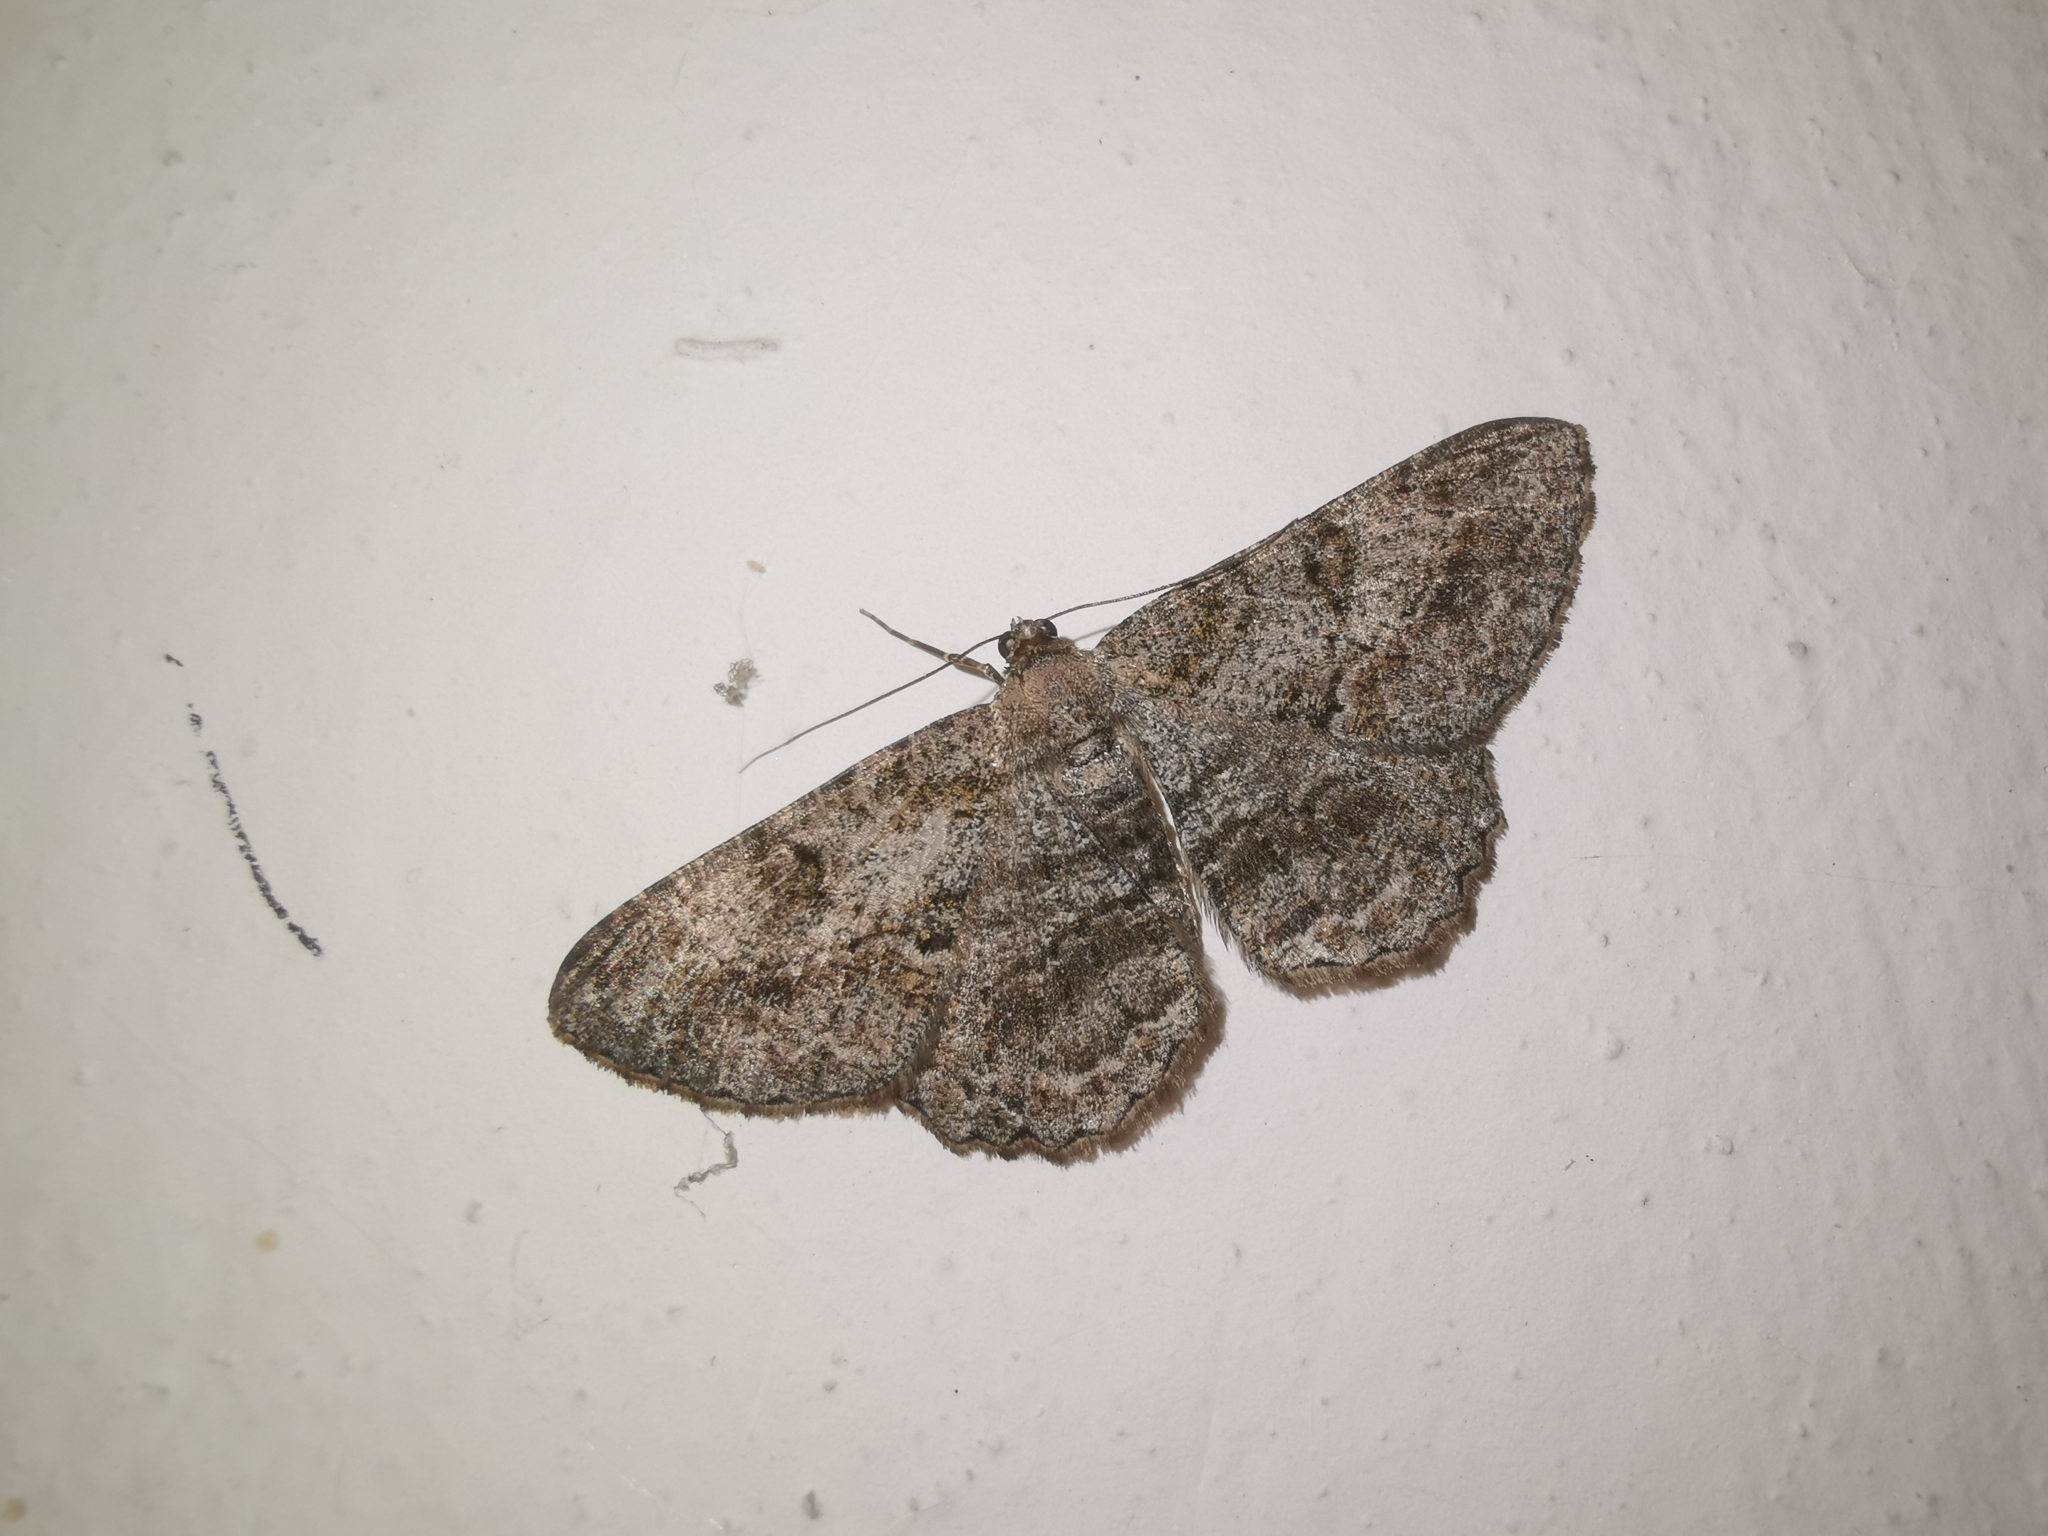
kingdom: Animalia
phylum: Arthropoda
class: Insecta
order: Lepidoptera
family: Geometridae
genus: Peribatodes
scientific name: Peribatodes rhomboidaria
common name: Willow beauty
